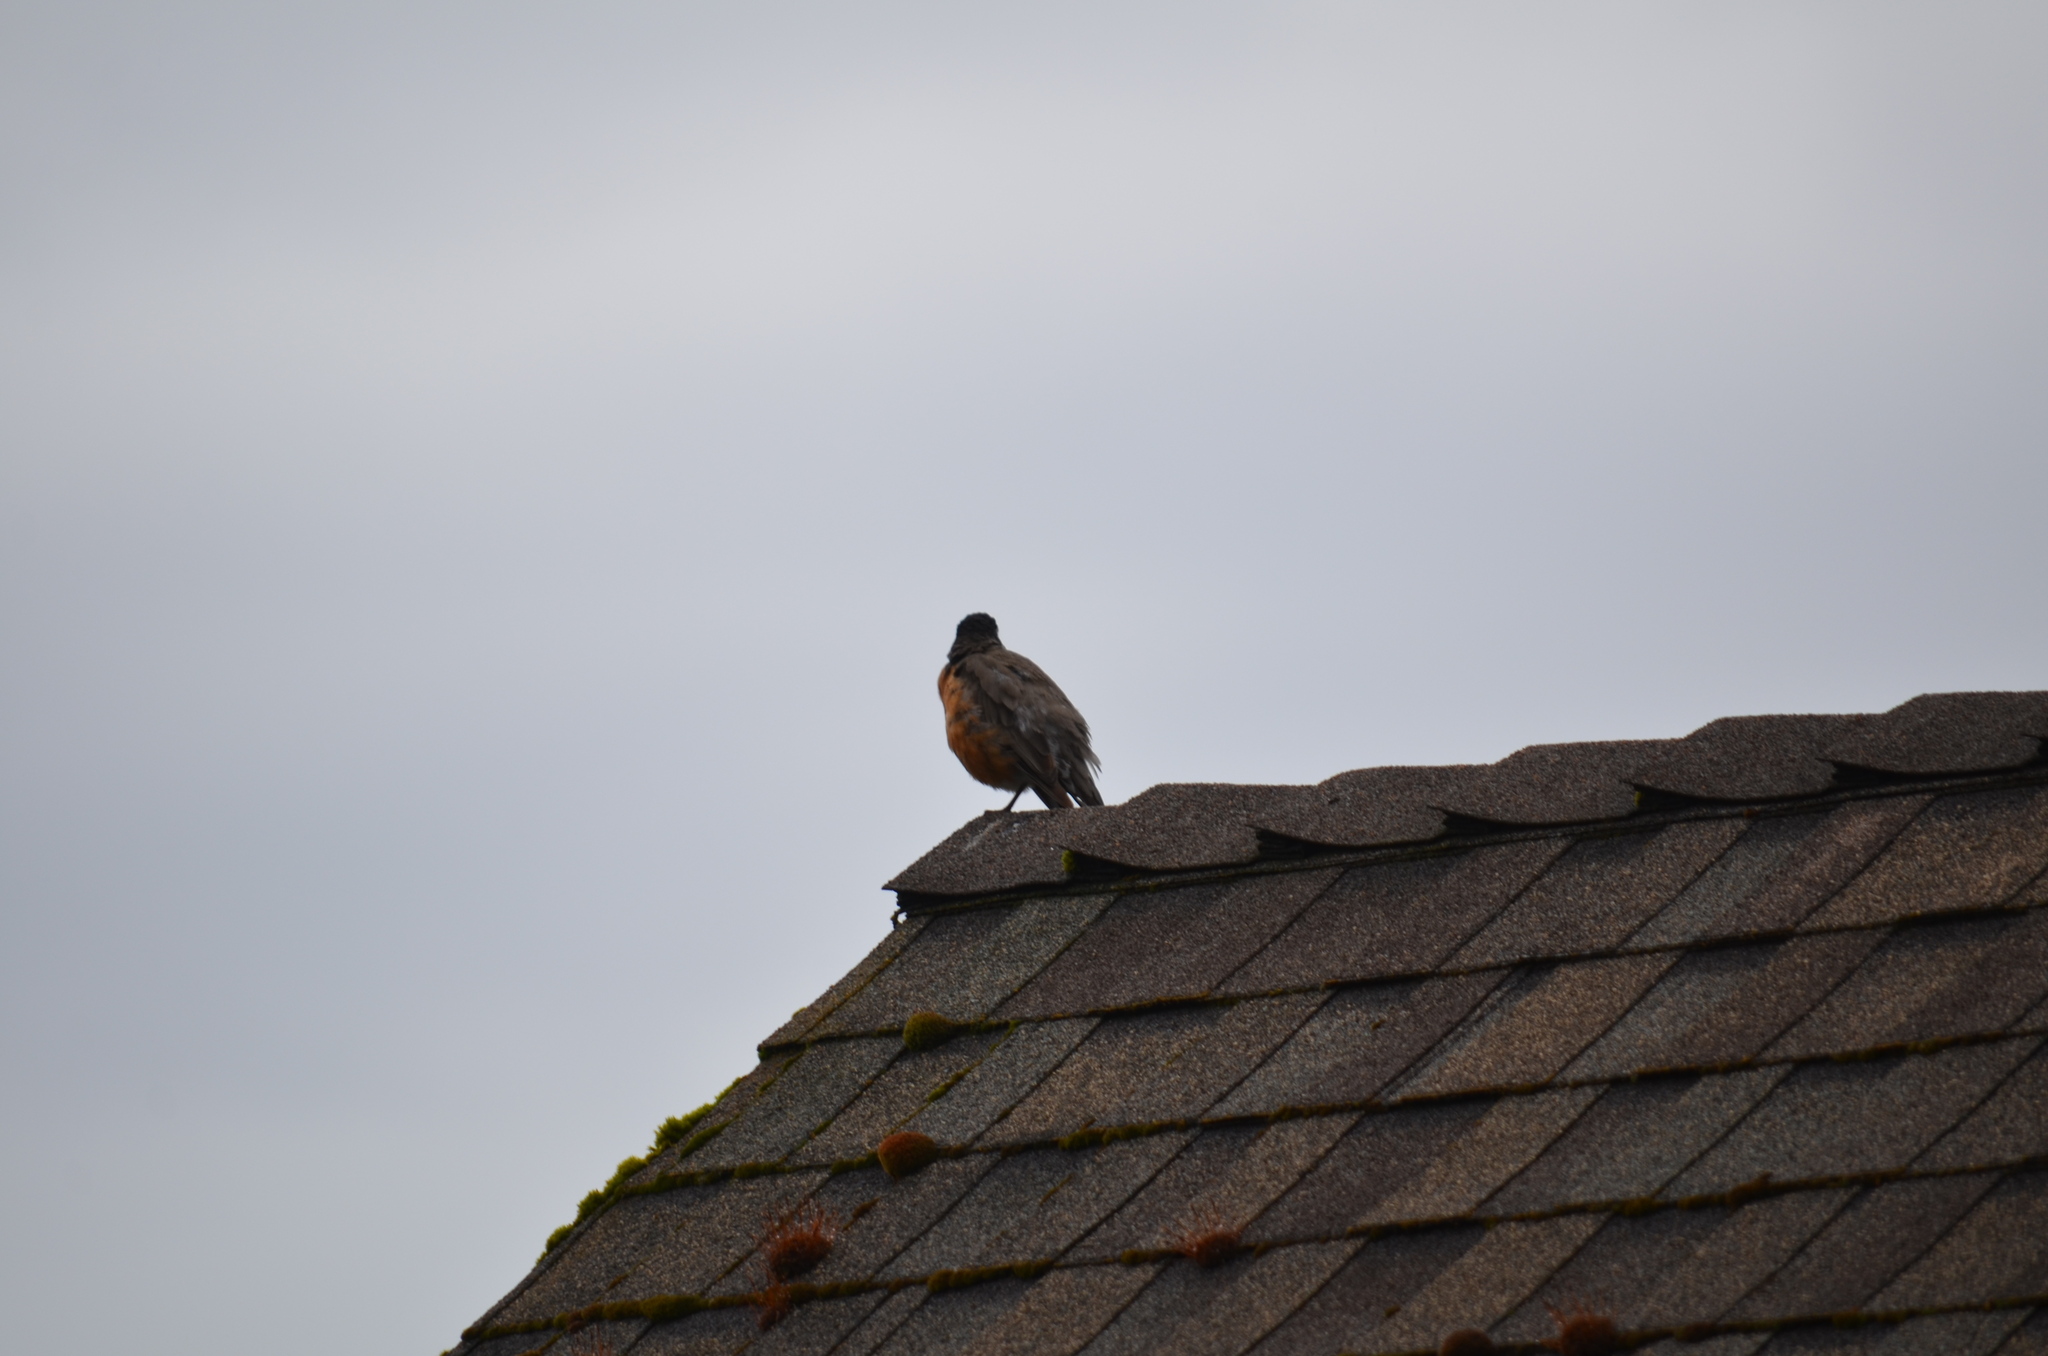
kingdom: Animalia
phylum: Chordata
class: Aves
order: Passeriformes
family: Turdidae
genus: Turdus
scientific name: Turdus migratorius
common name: American robin
